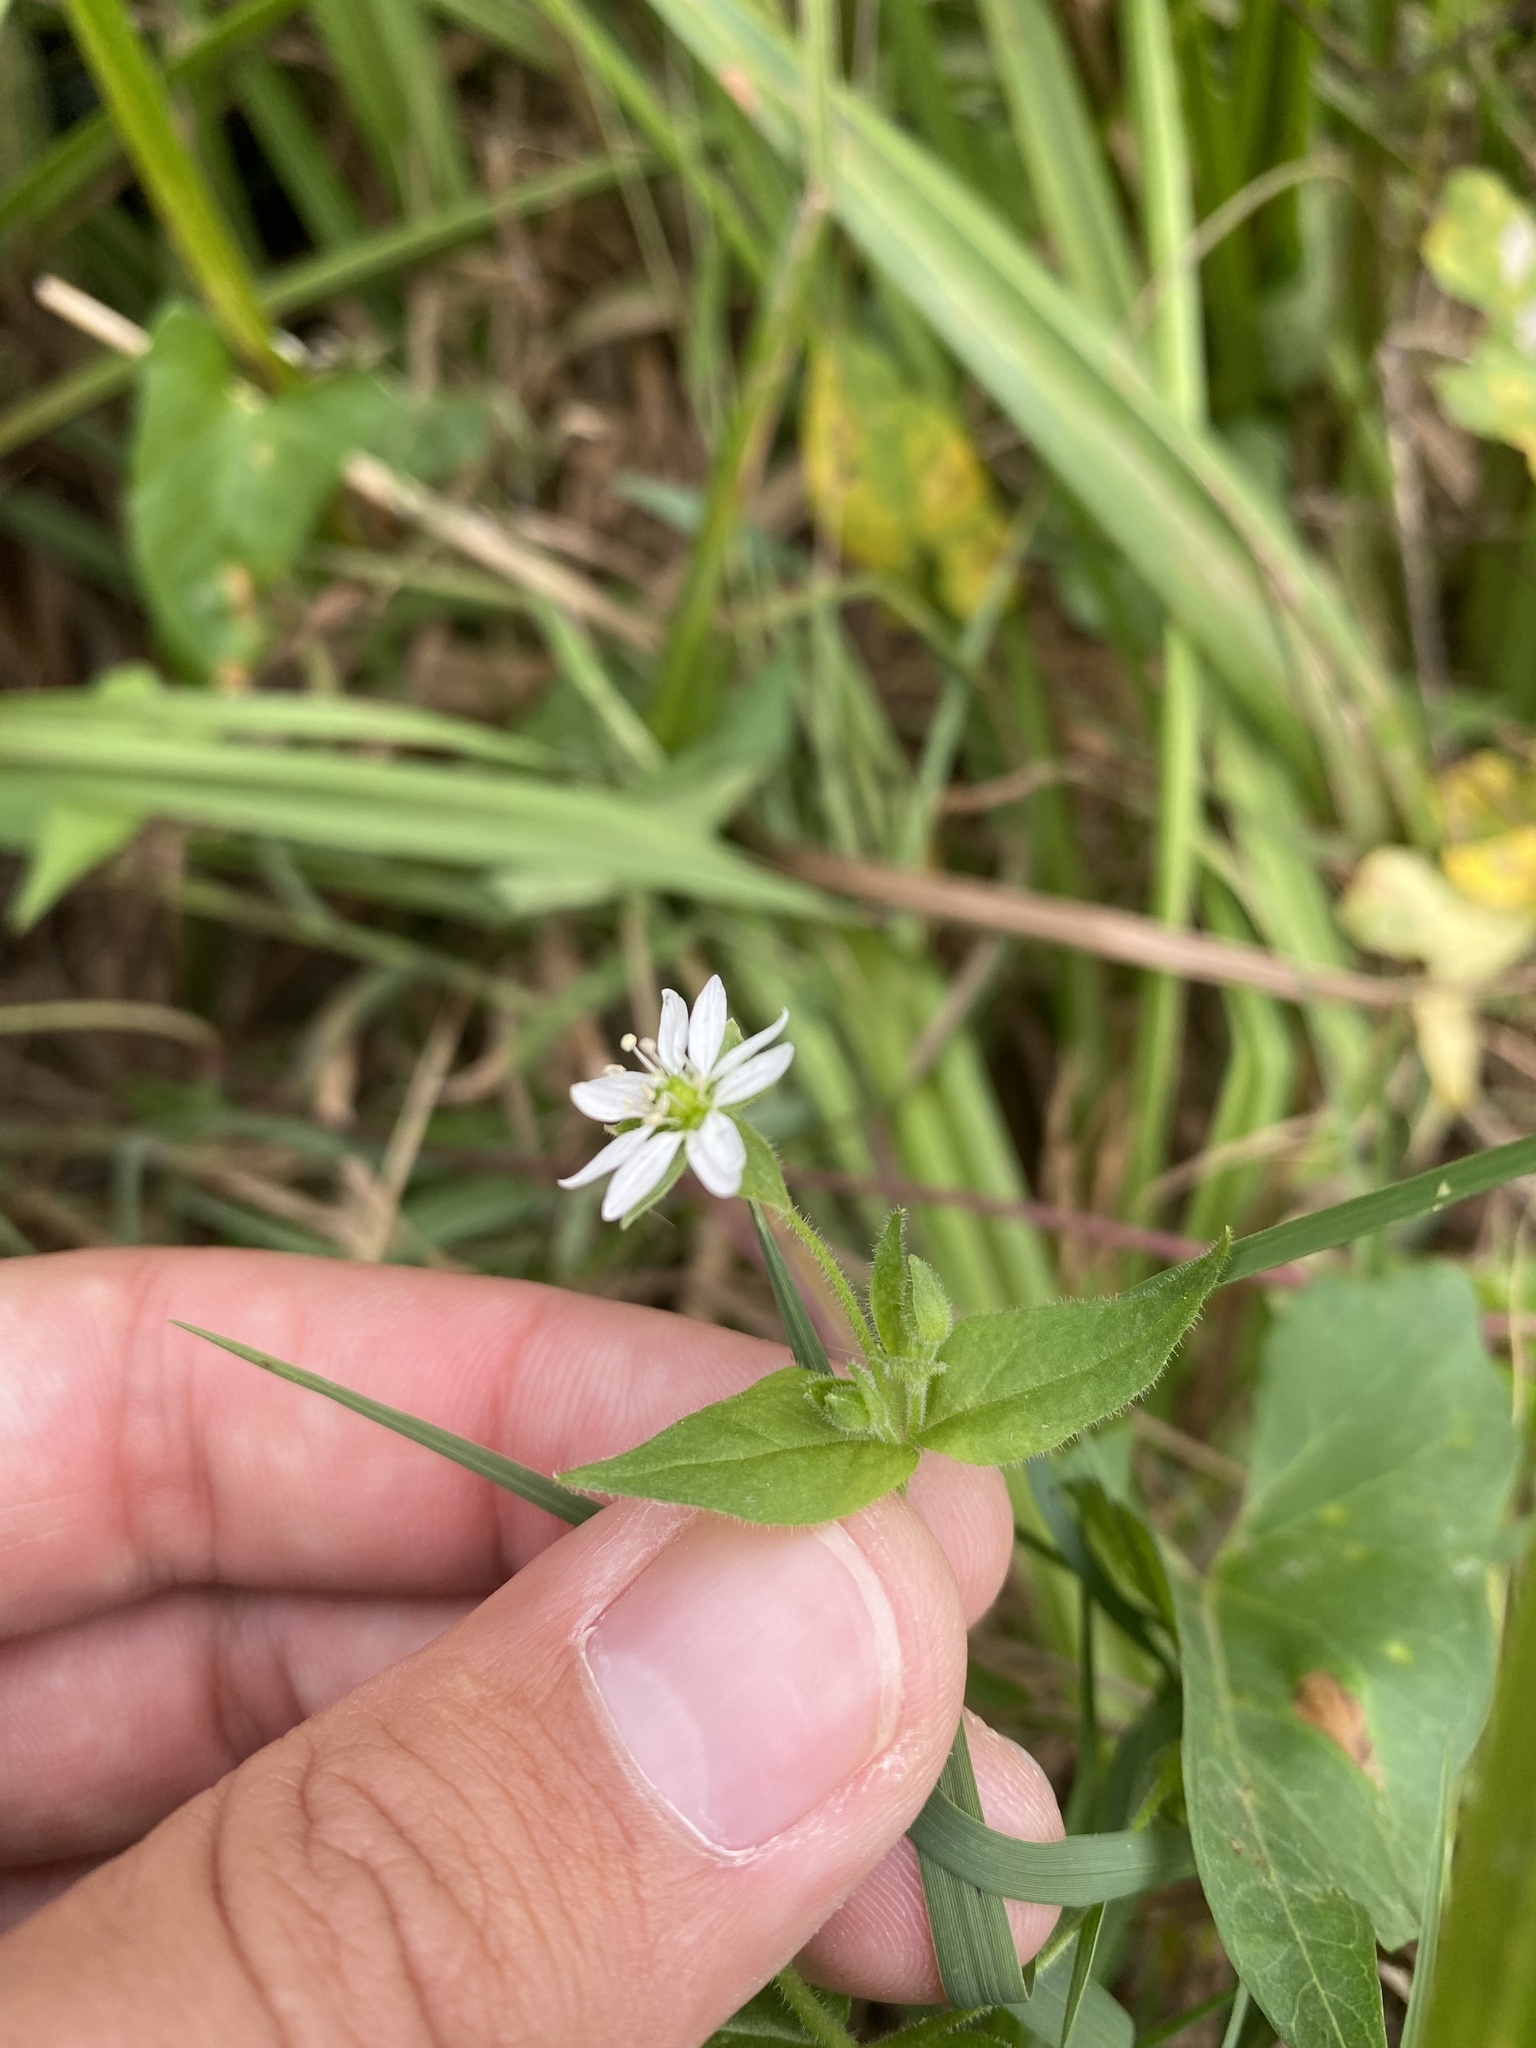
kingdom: Plantae
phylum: Tracheophyta
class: Magnoliopsida
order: Caryophyllales
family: Caryophyllaceae
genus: Stellaria
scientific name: Stellaria aquatica
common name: Water chickweed
